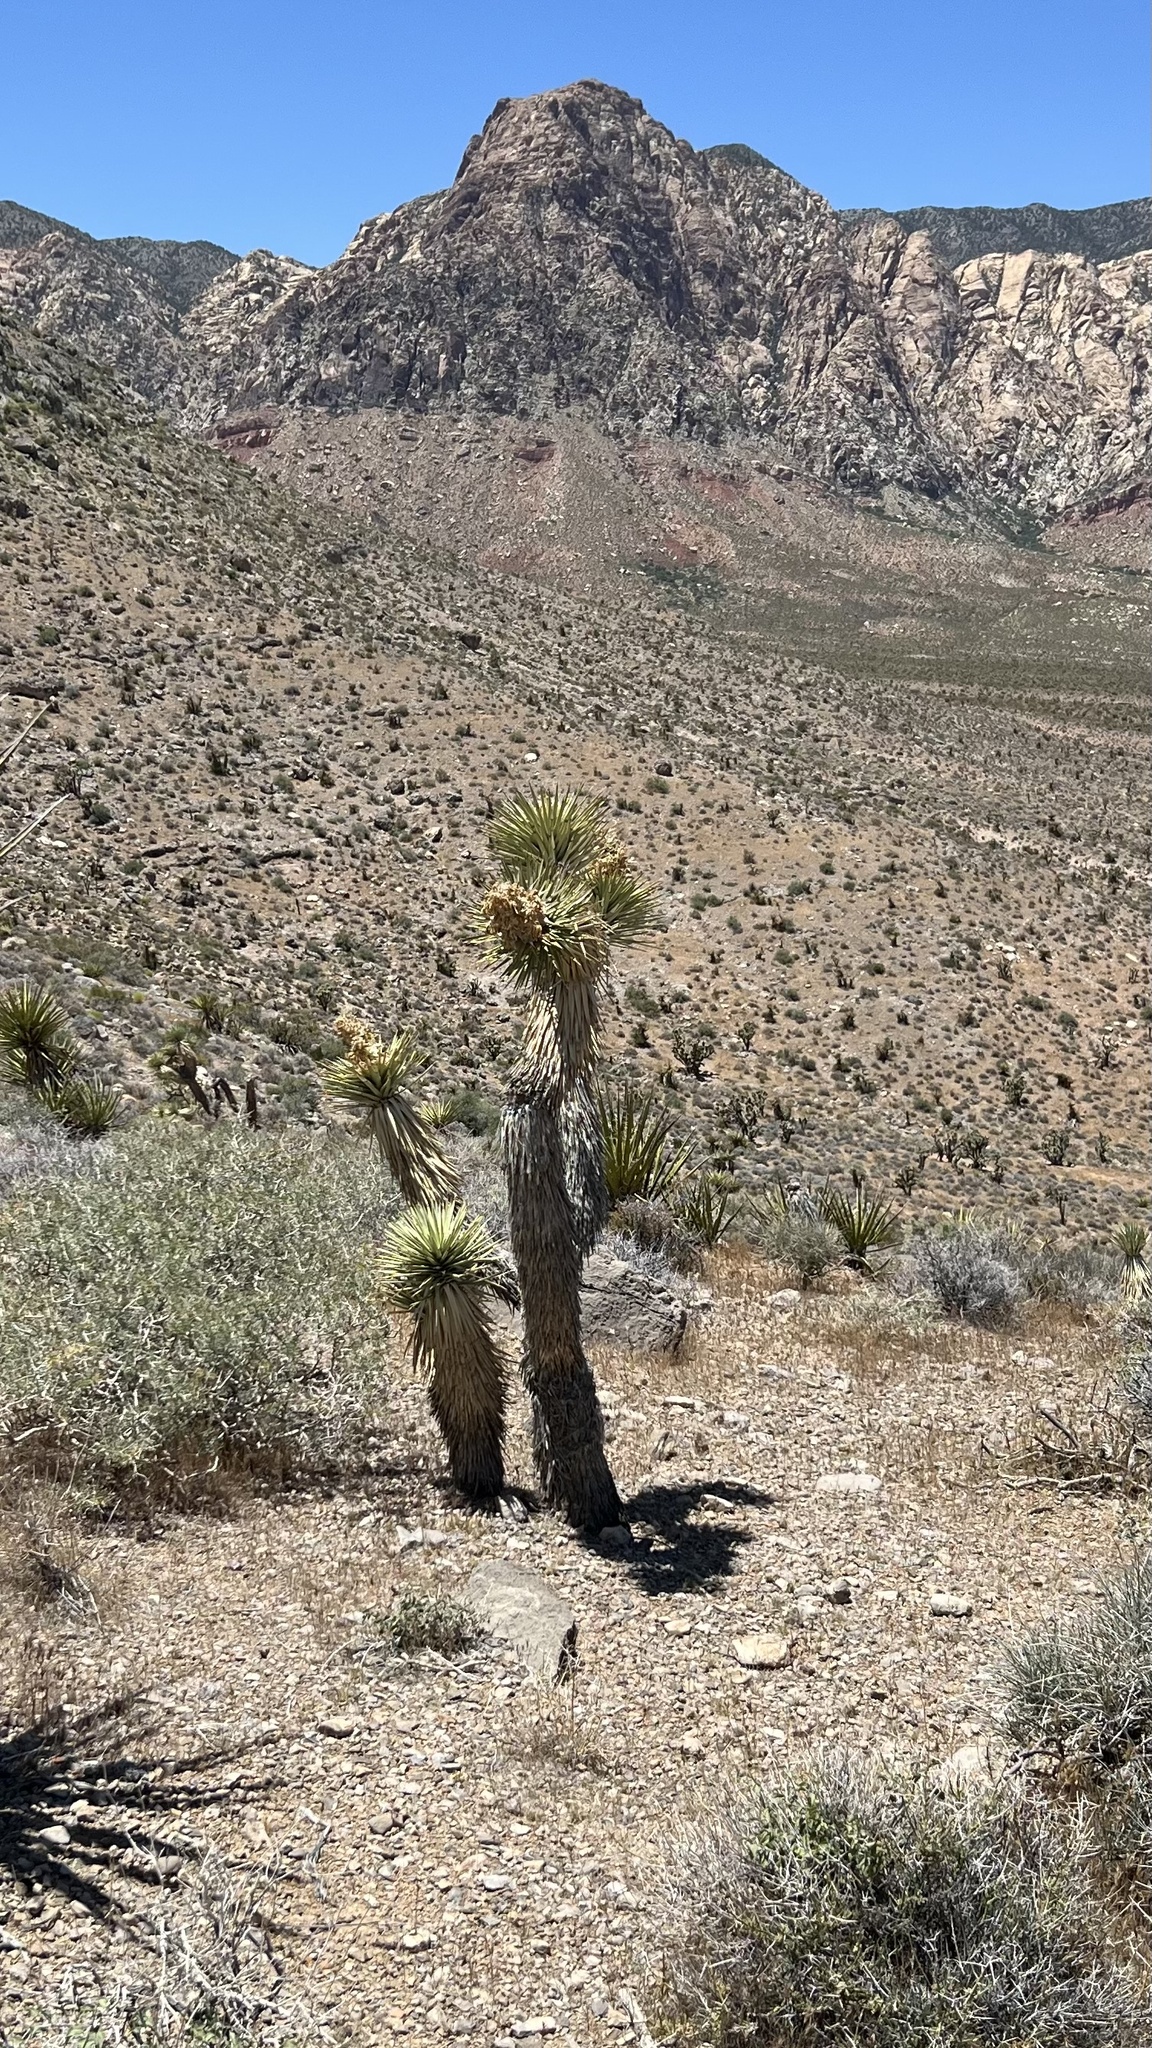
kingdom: Plantae
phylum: Tracheophyta
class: Liliopsida
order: Asparagales
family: Asparagaceae
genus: Yucca
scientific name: Yucca brevifolia
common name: Joshua tree
